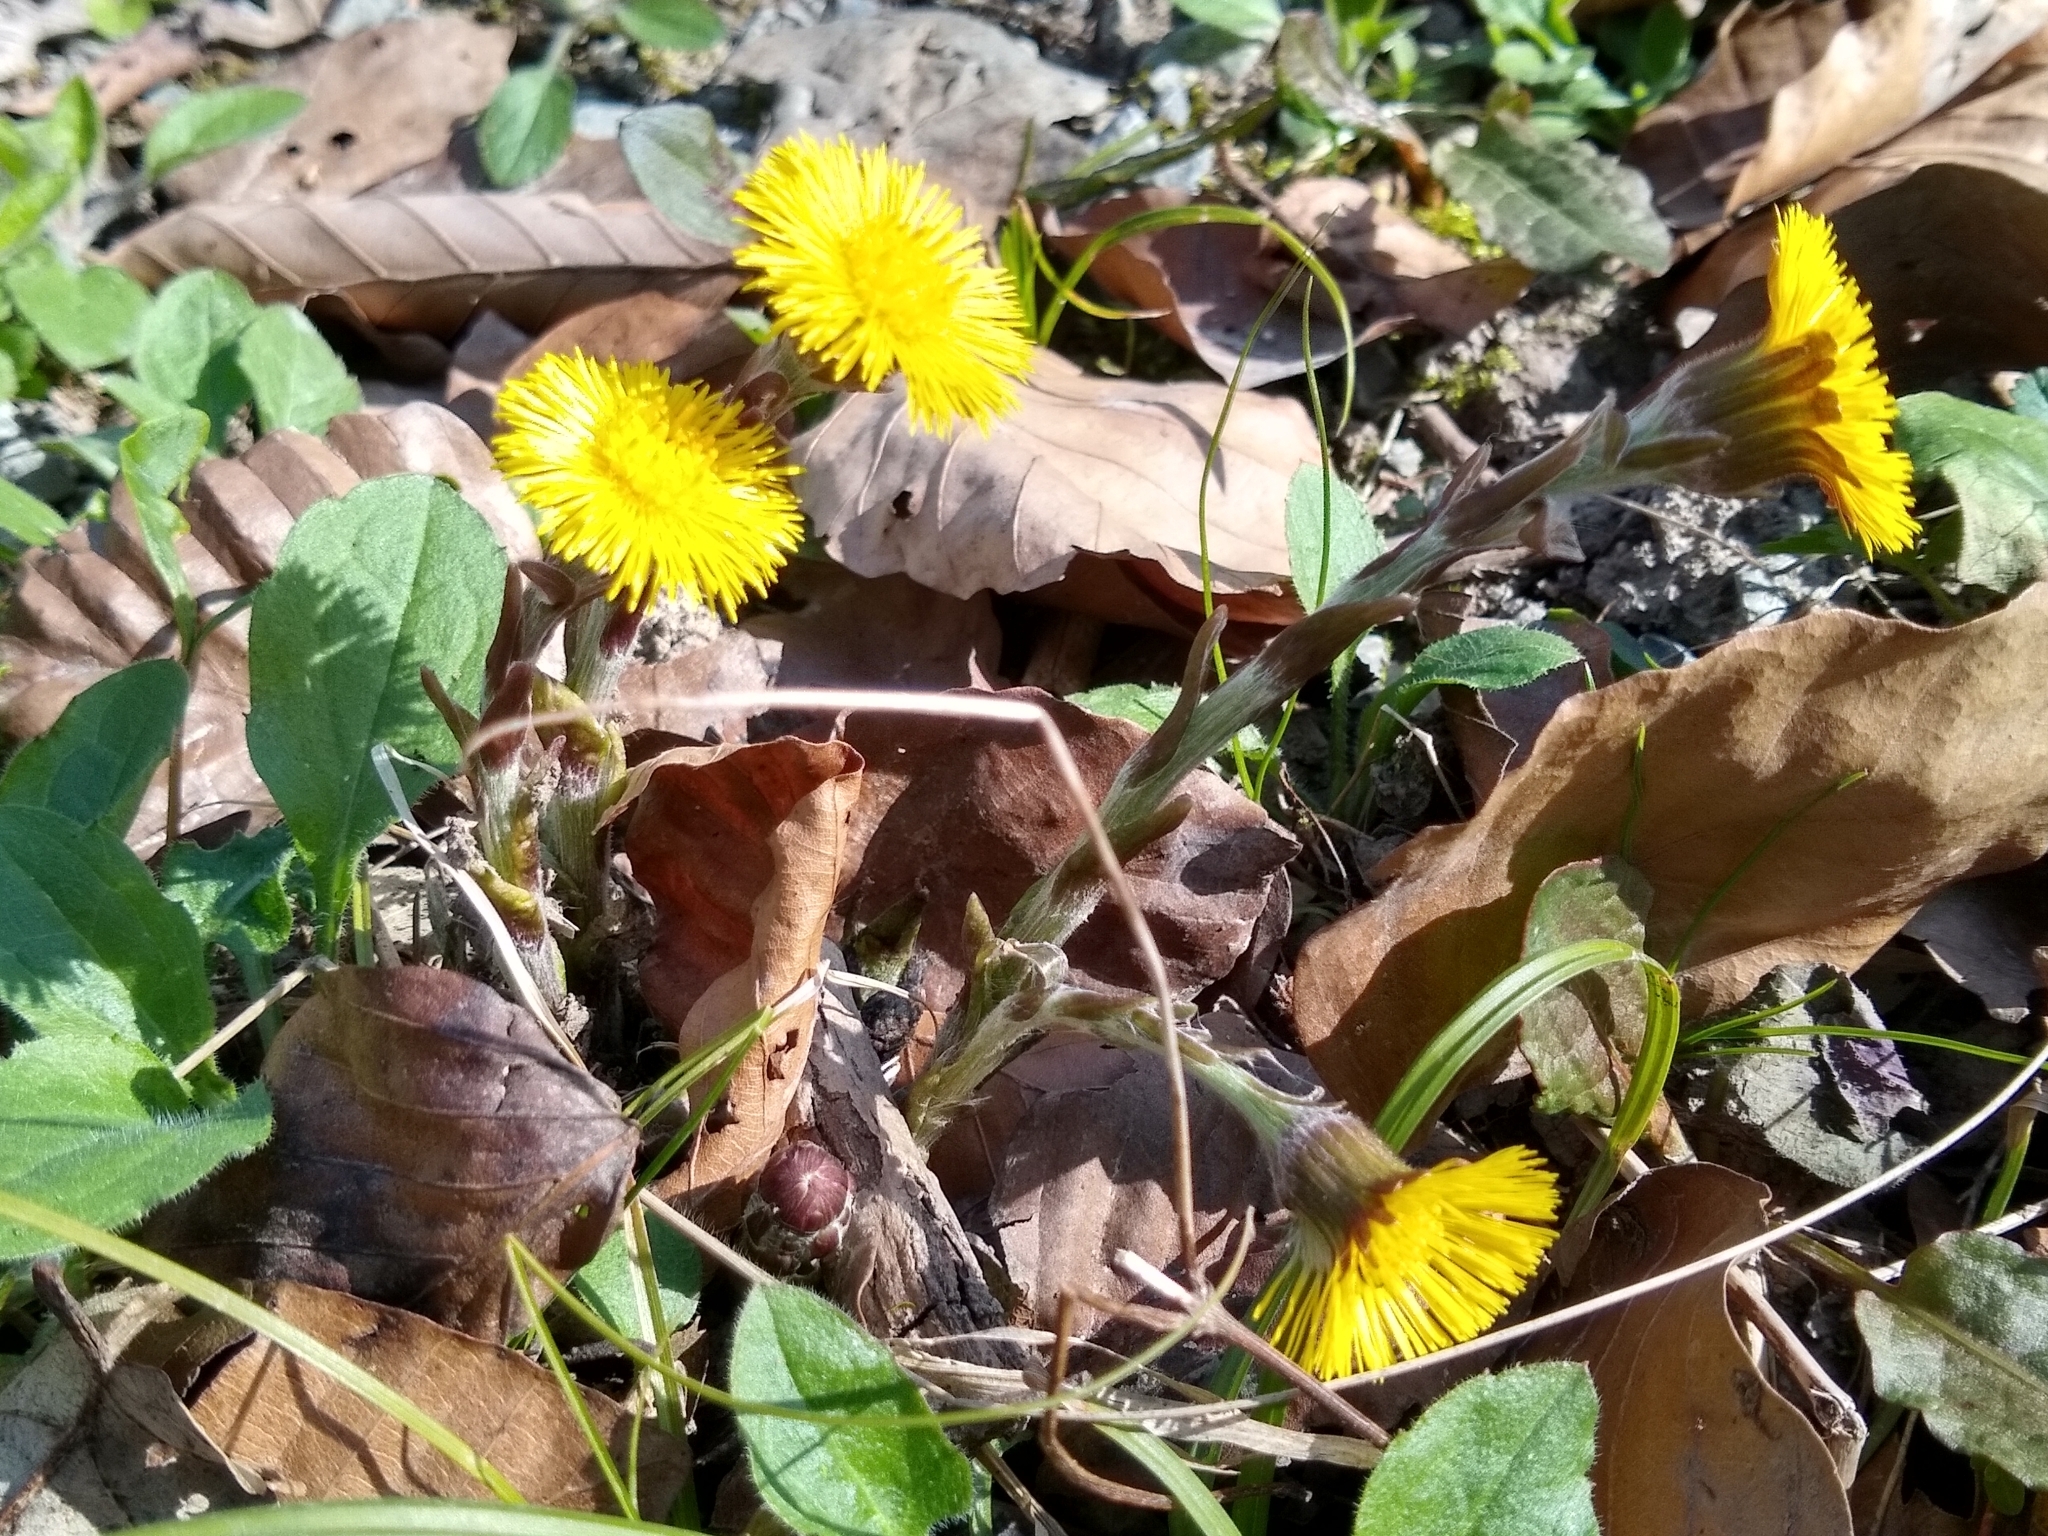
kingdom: Plantae
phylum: Tracheophyta
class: Magnoliopsida
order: Asterales
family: Asteraceae
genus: Tussilago
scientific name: Tussilago farfara
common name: Coltsfoot
